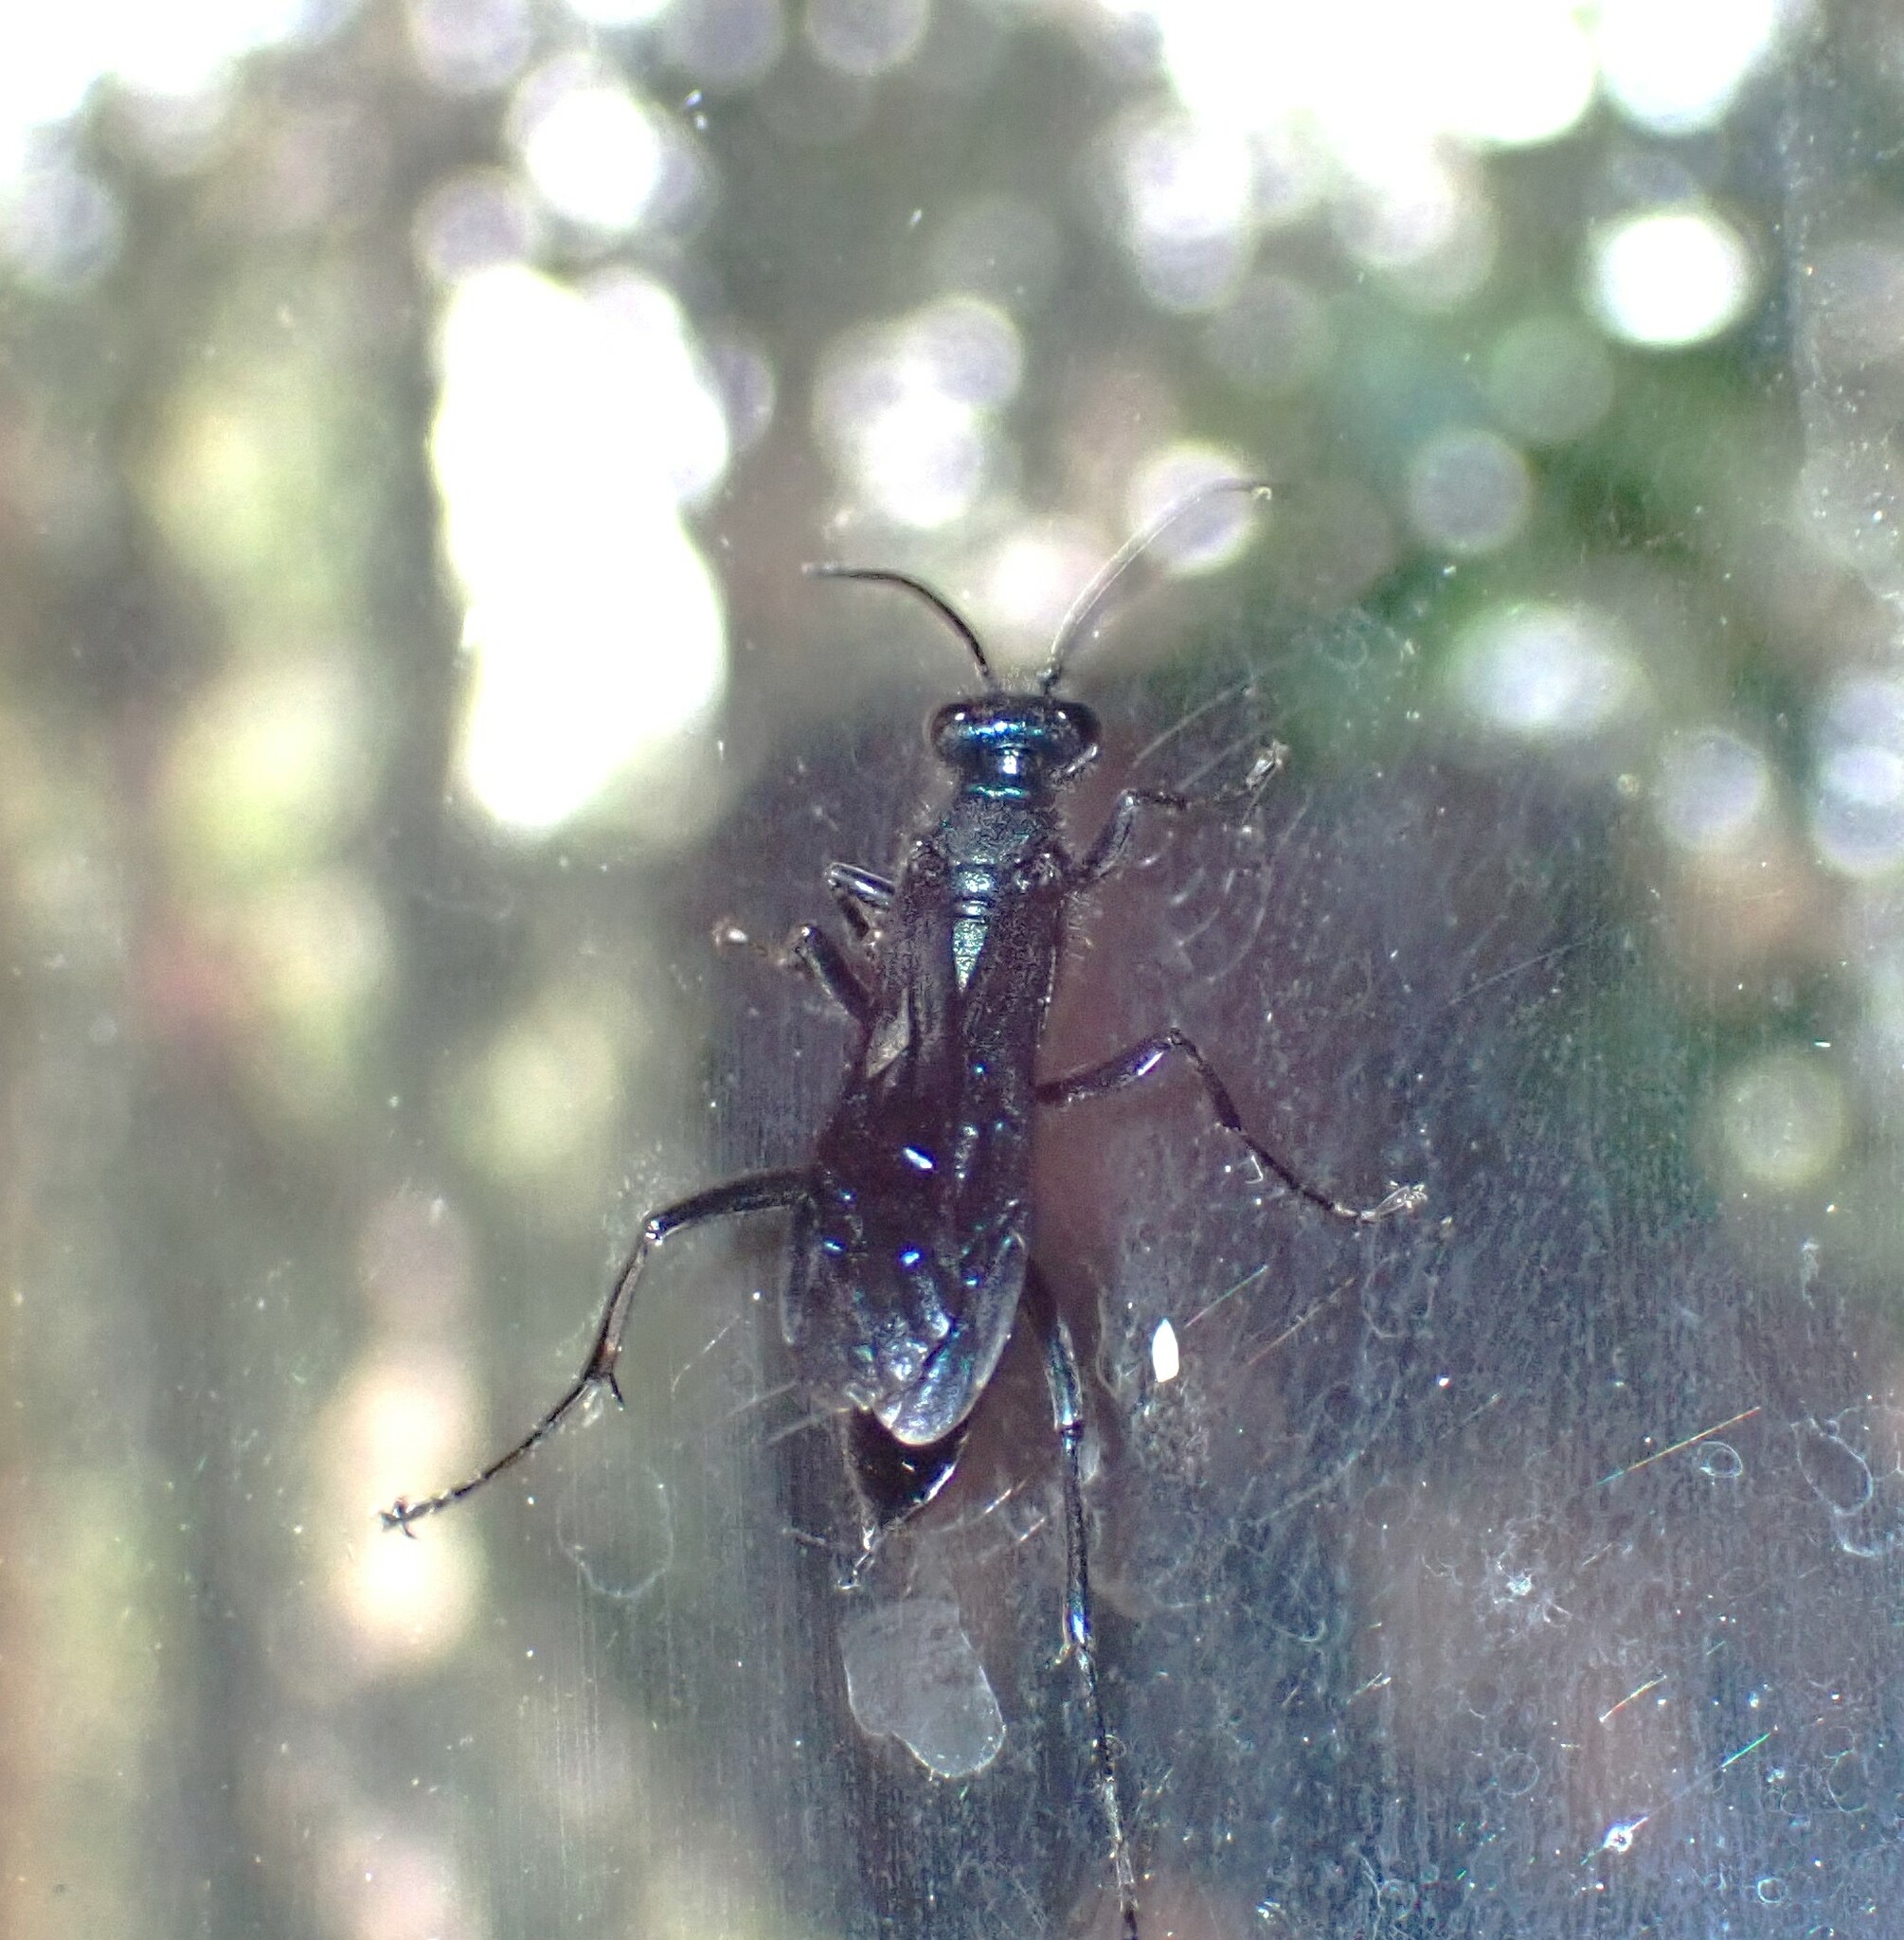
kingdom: Animalia
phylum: Arthropoda
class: Insecta
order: Hymenoptera
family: Sphecidae
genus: Chalybion
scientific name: Chalybion californicum
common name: Mud dauber
